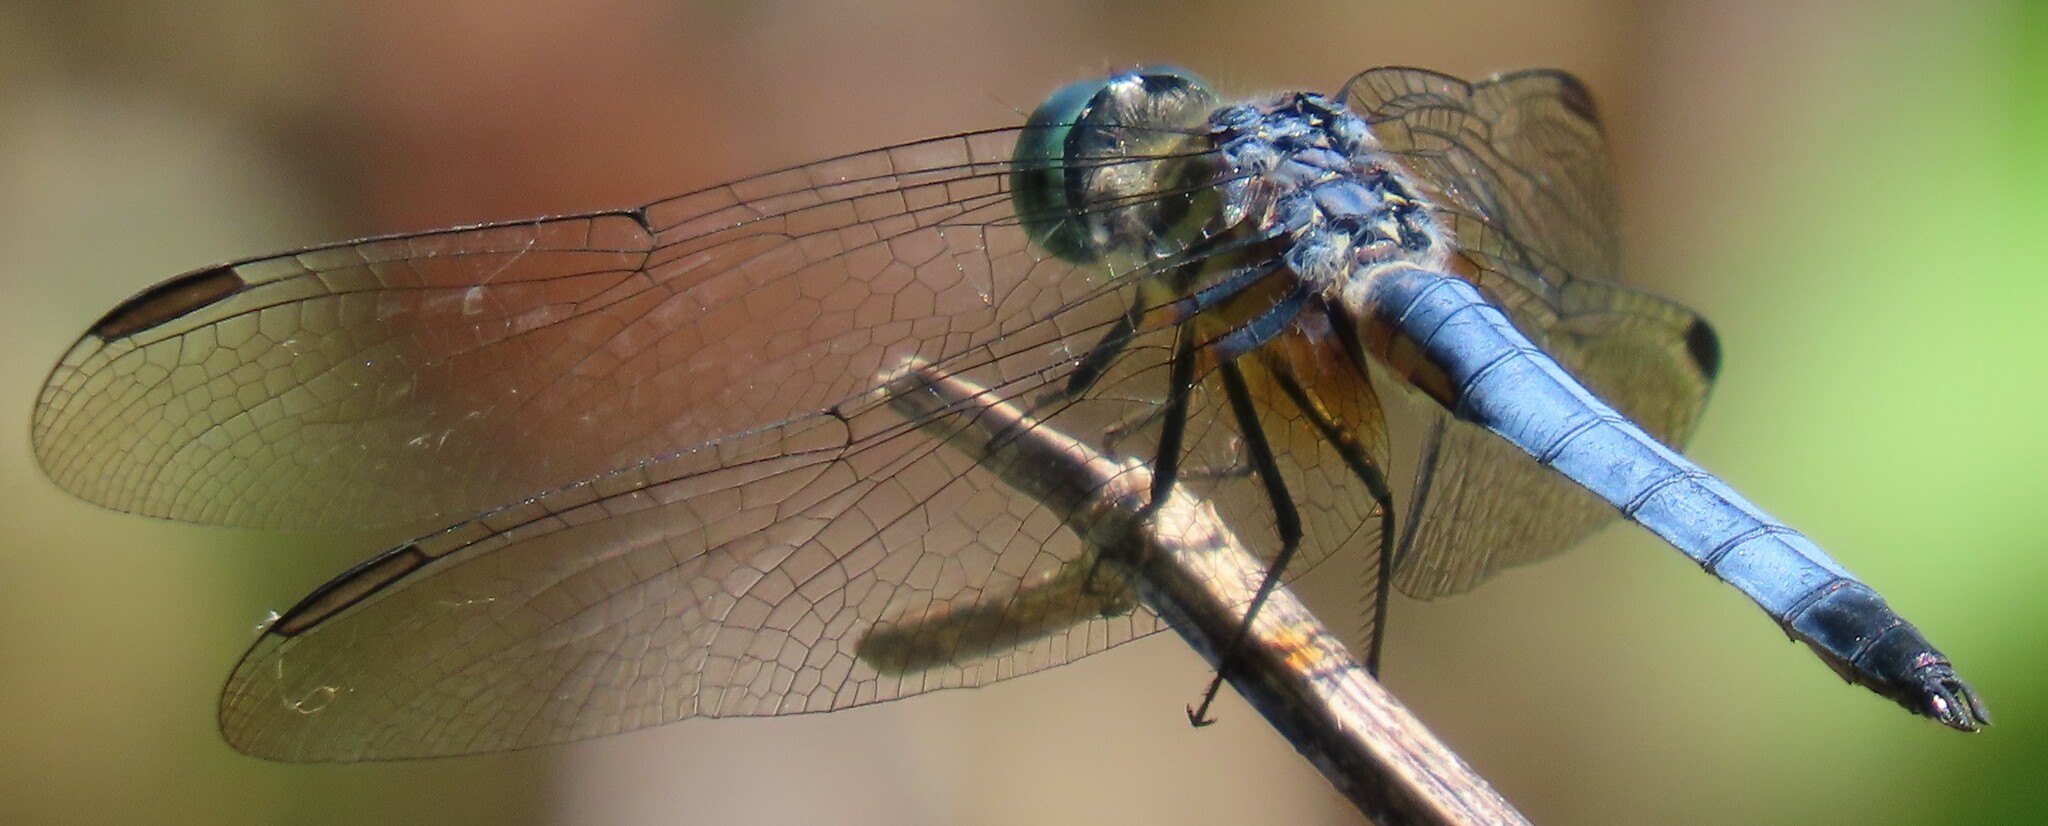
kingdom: Animalia
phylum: Arthropoda
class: Insecta
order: Odonata
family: Libellulidae
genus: Pachydiplax
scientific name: Pachydiplax longipennis
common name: Blue dasher
